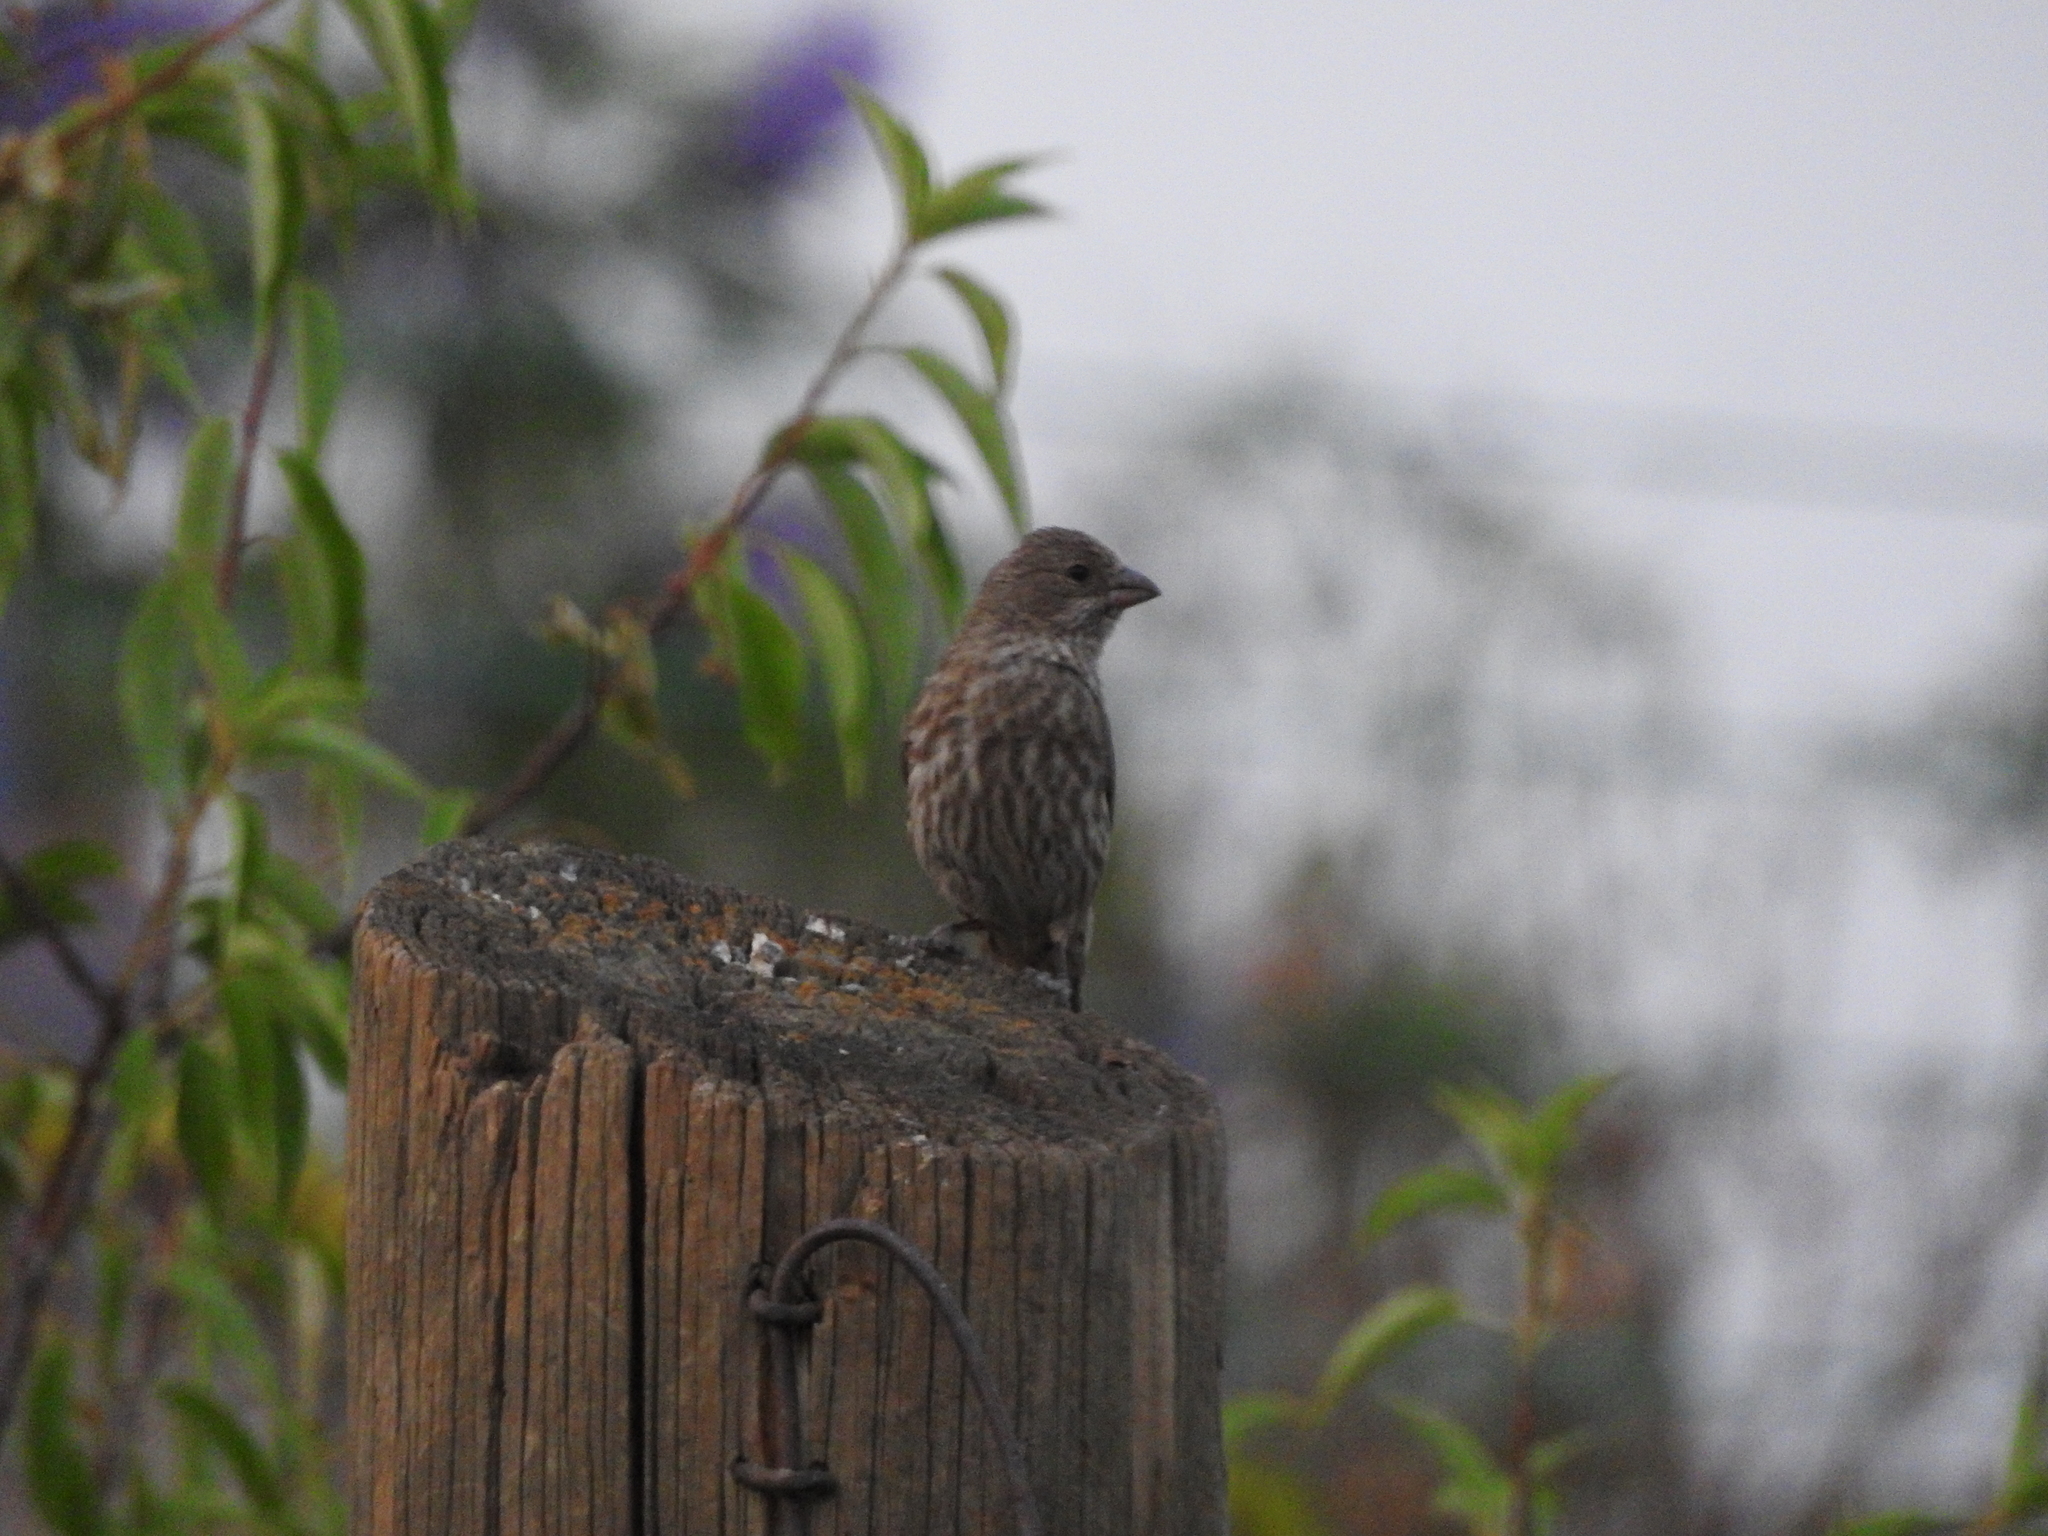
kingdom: Animalia
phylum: Chordata
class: Aves
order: Passeriformes
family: Fringillidae
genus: Haemorhous
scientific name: Haemorhous mexicanus
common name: House finch
